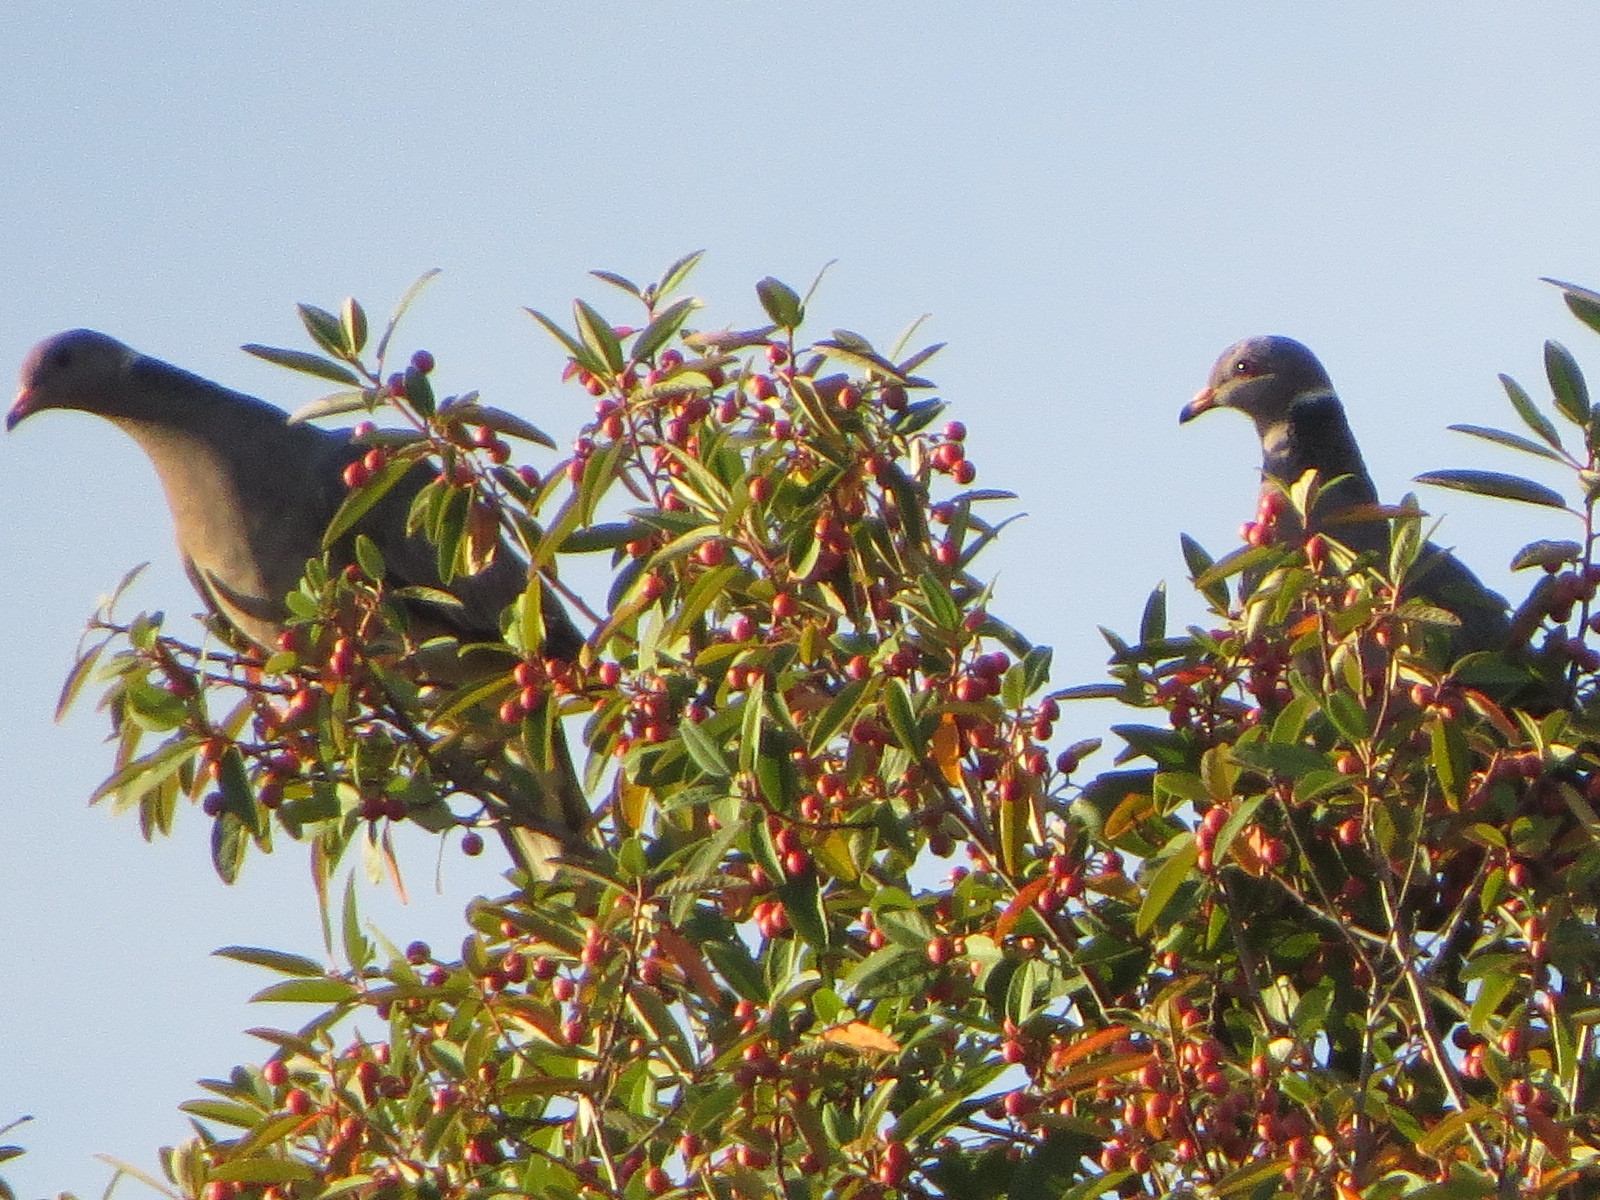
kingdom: Animalia
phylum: Chordata
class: Aves
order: Columbiformes
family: Columbidae
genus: Patagioenas
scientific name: Patagioenas fasciata
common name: Band-tailed pigeon
